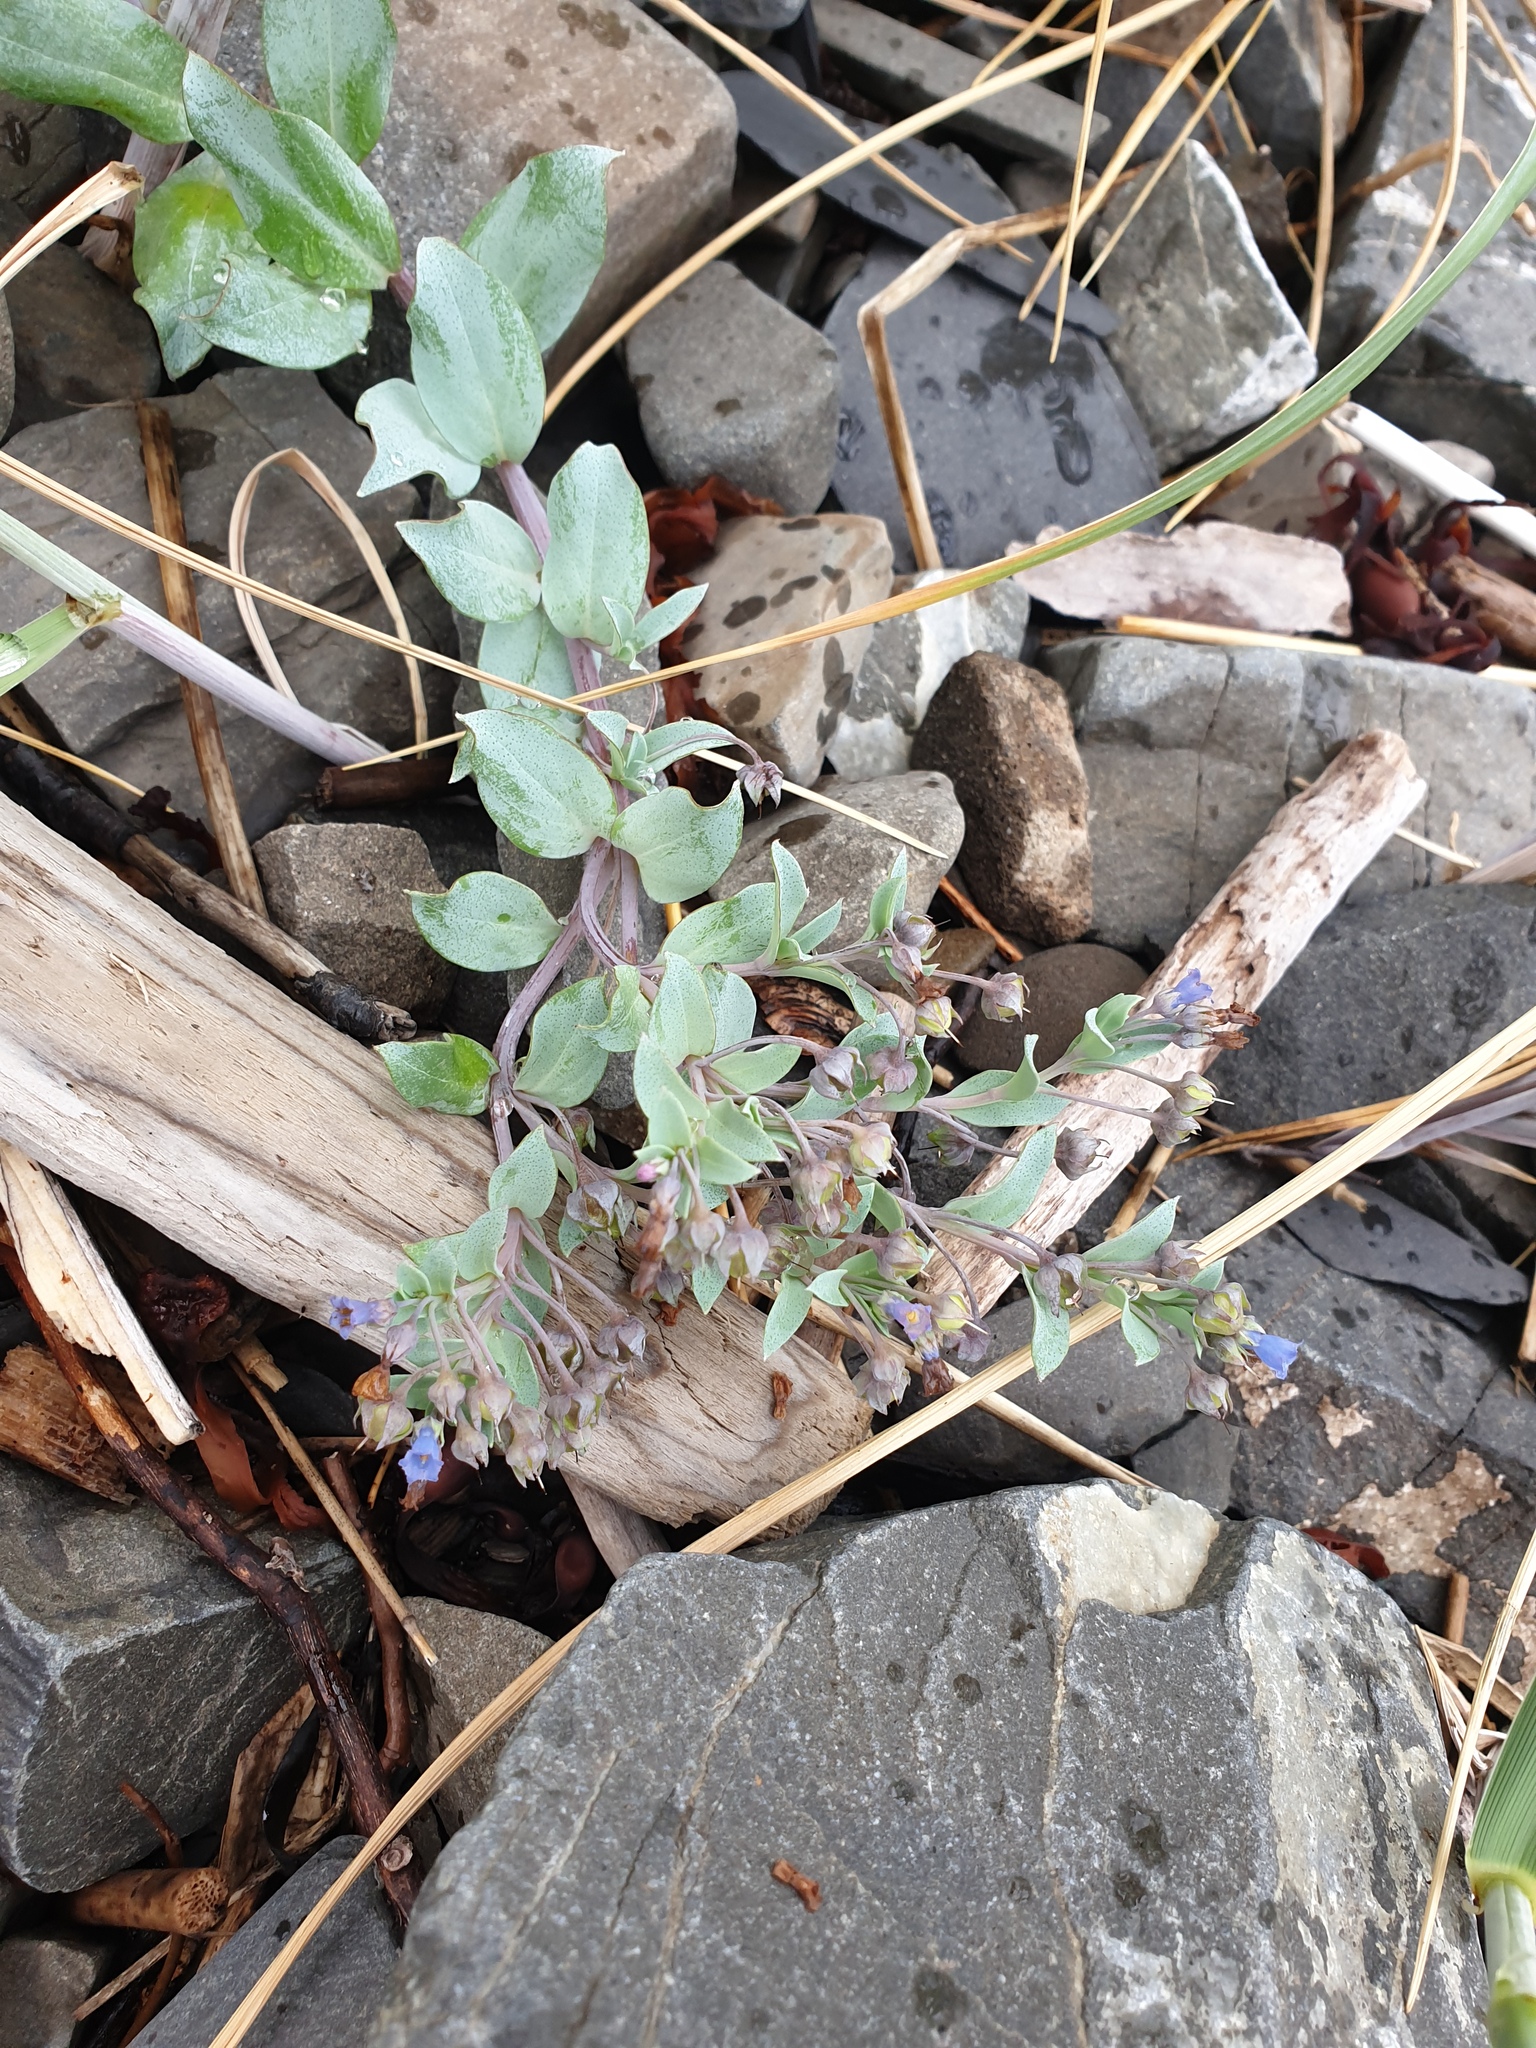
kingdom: Plantae
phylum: Tracheophyta
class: Magnoliopsida
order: Boraginales
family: Boraginaceae
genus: Mertensia
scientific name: Mertensia maritima
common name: Oysterplant
